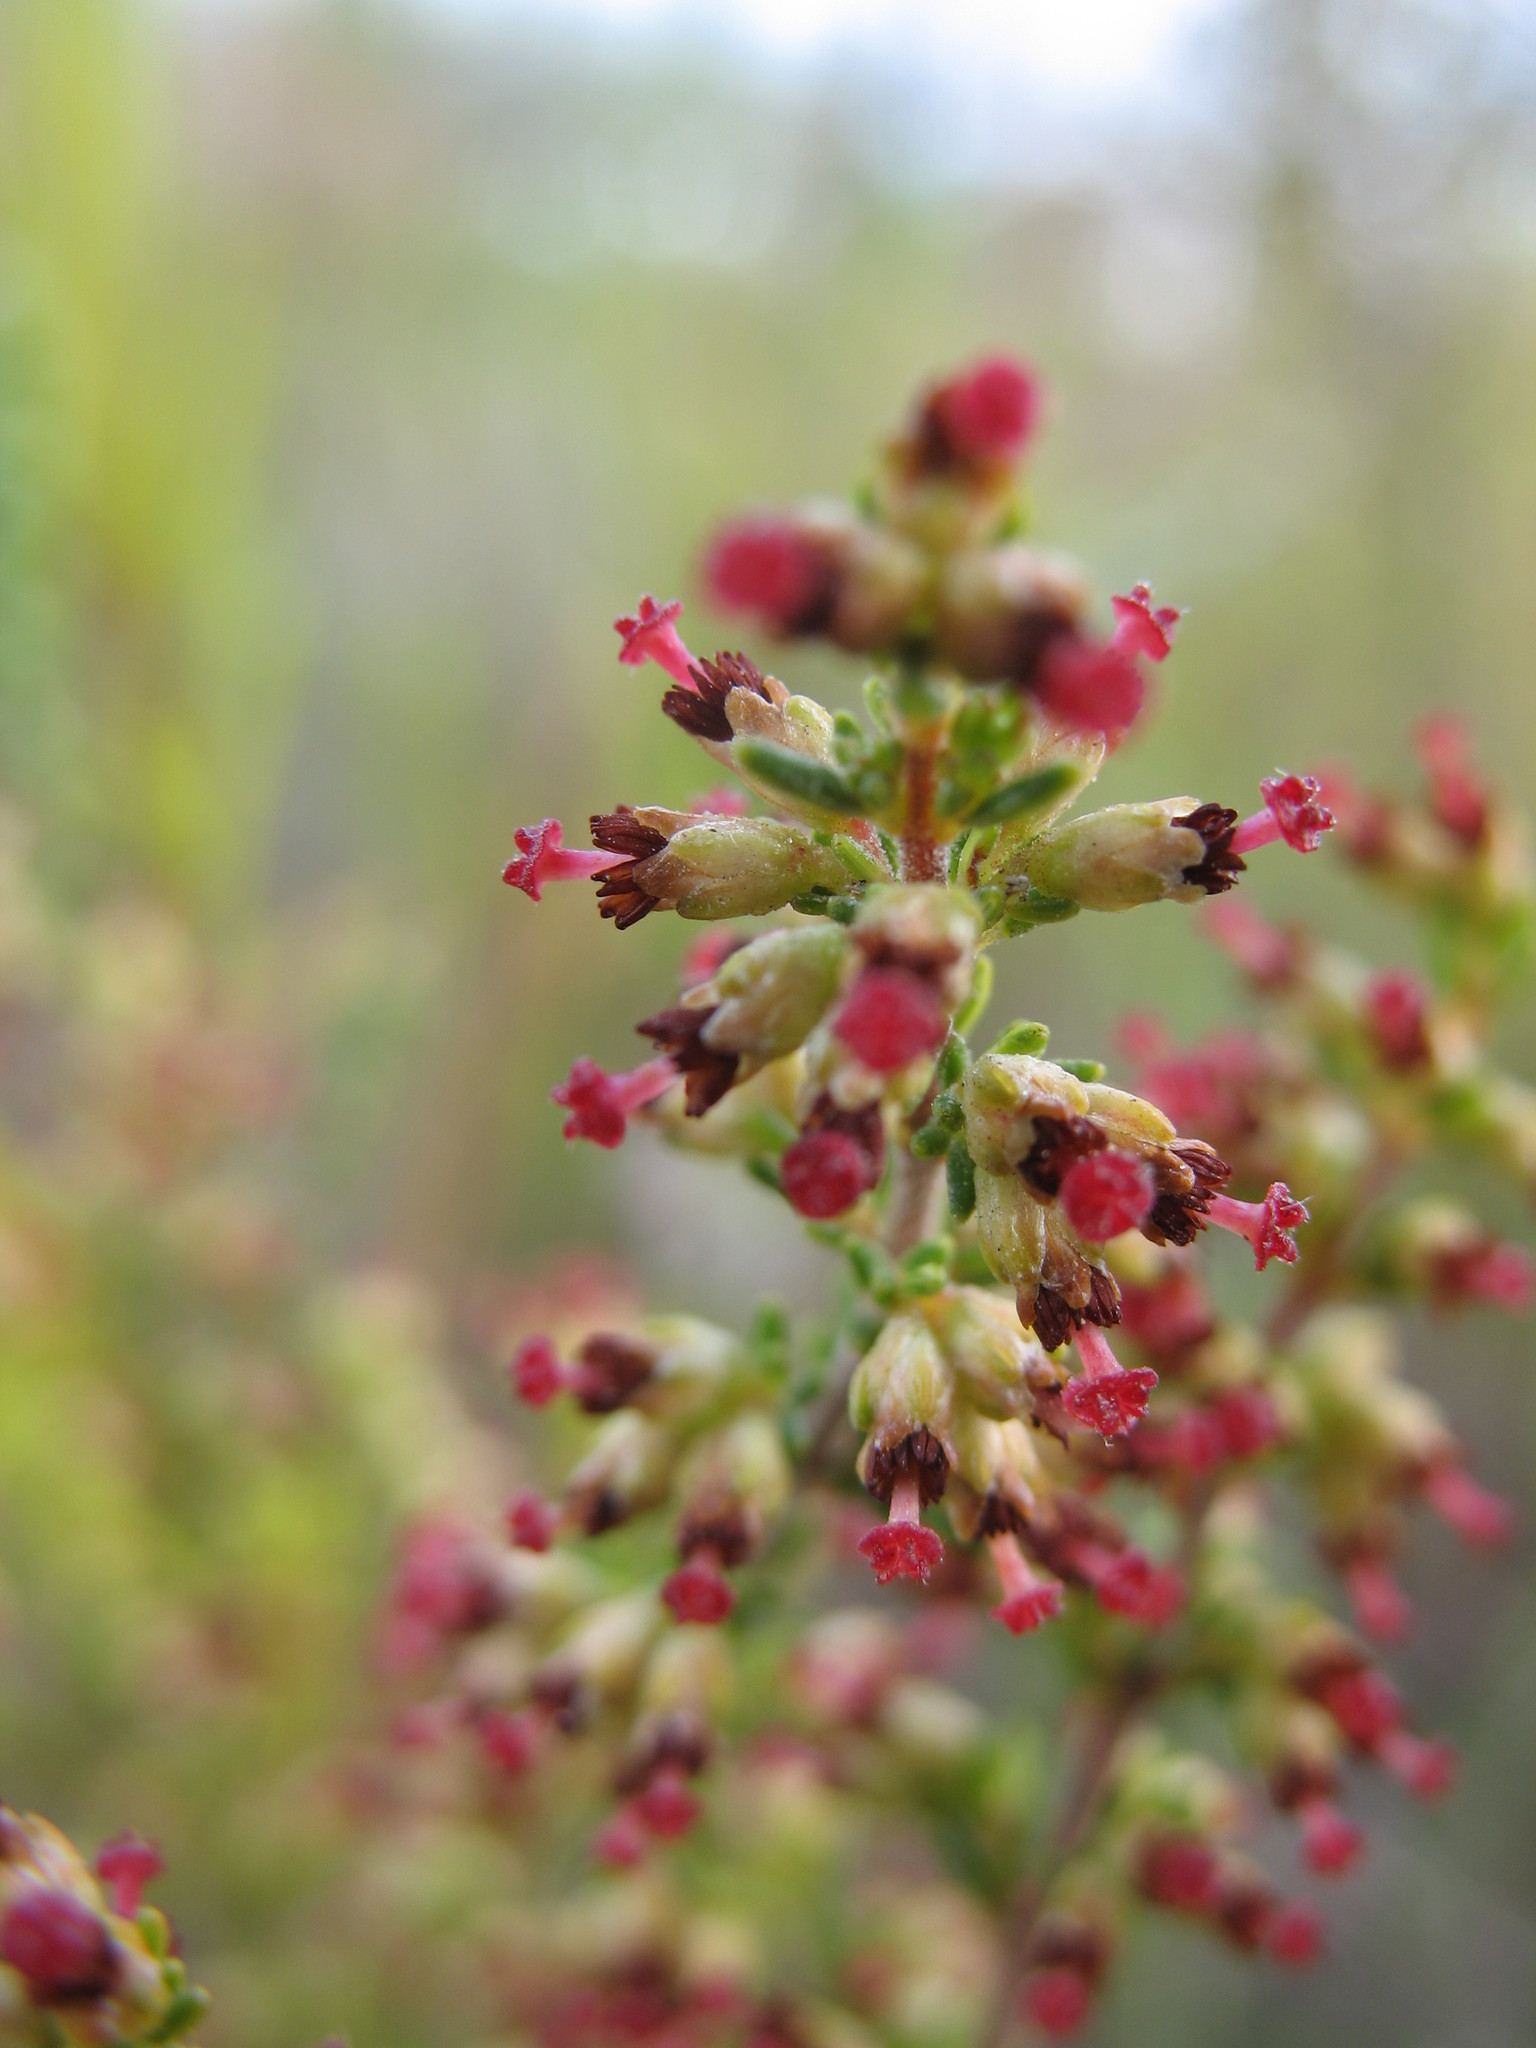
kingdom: Plantae
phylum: Tracheophyta
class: Magnoliopsida
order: Ericales
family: Ericaceae
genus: Erica
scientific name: Erica lasciva
